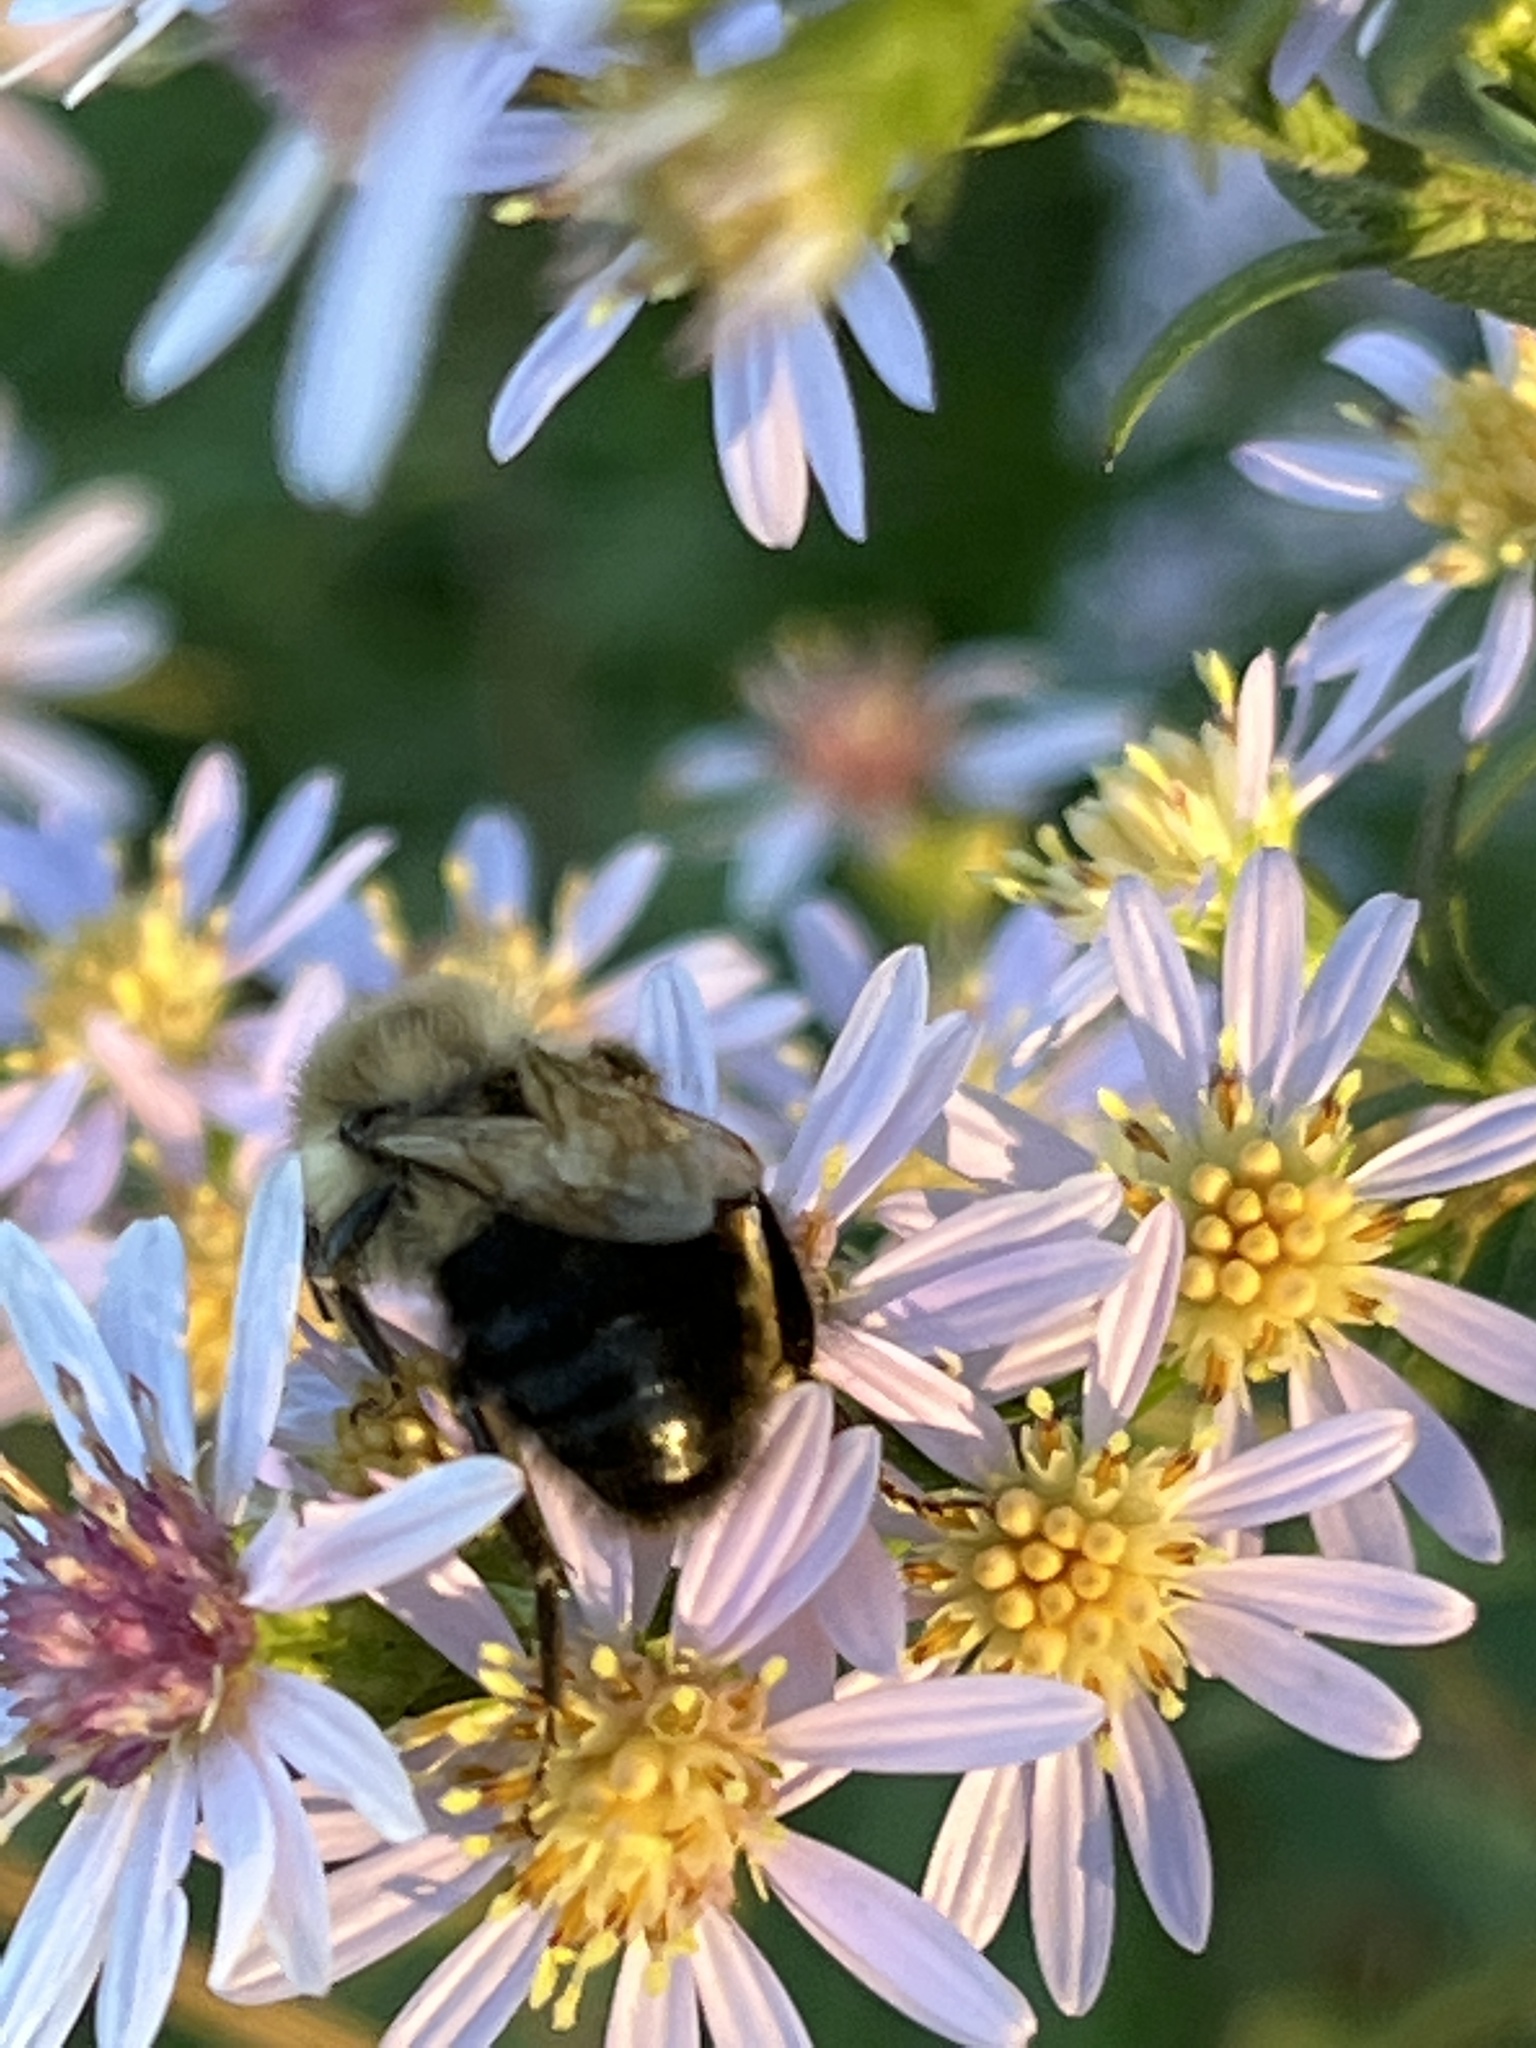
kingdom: Animalia
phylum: Arthropoda
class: Insecta
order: Hymenoptera
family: Apidae
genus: Bombus
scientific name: Bombus impatiens
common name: Common eastern bumble bee
